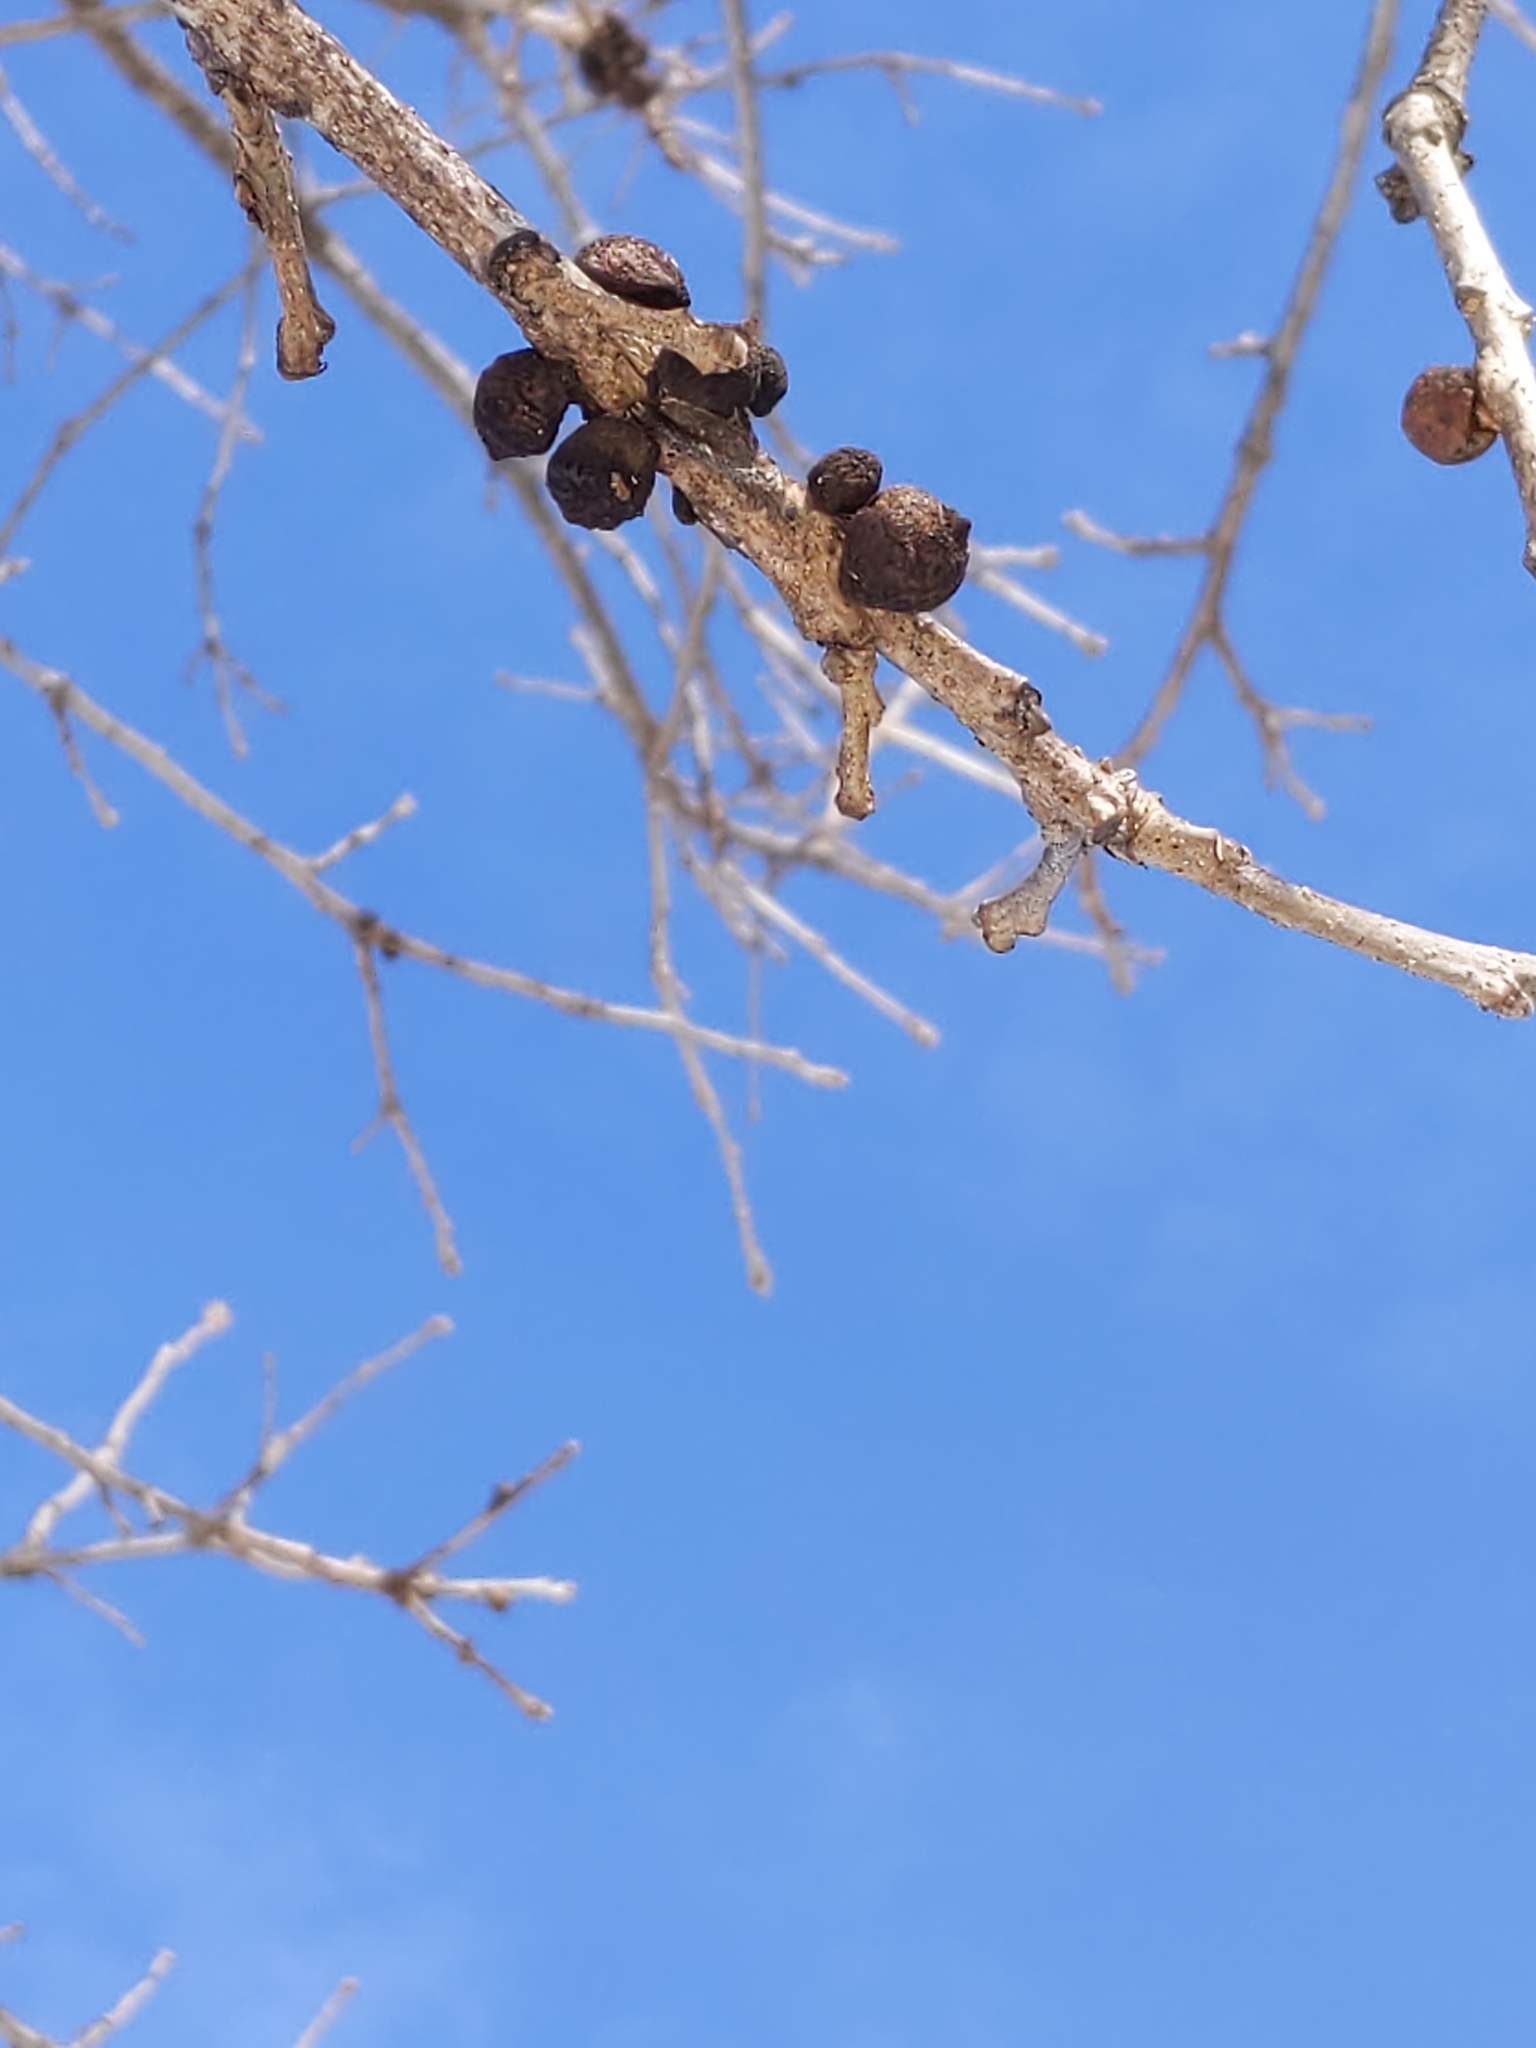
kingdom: Animalia
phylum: Arthropoda
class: Insecta
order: Hymenoptera
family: Cynipidae
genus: Disholcaspis
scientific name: Disholcaspis
